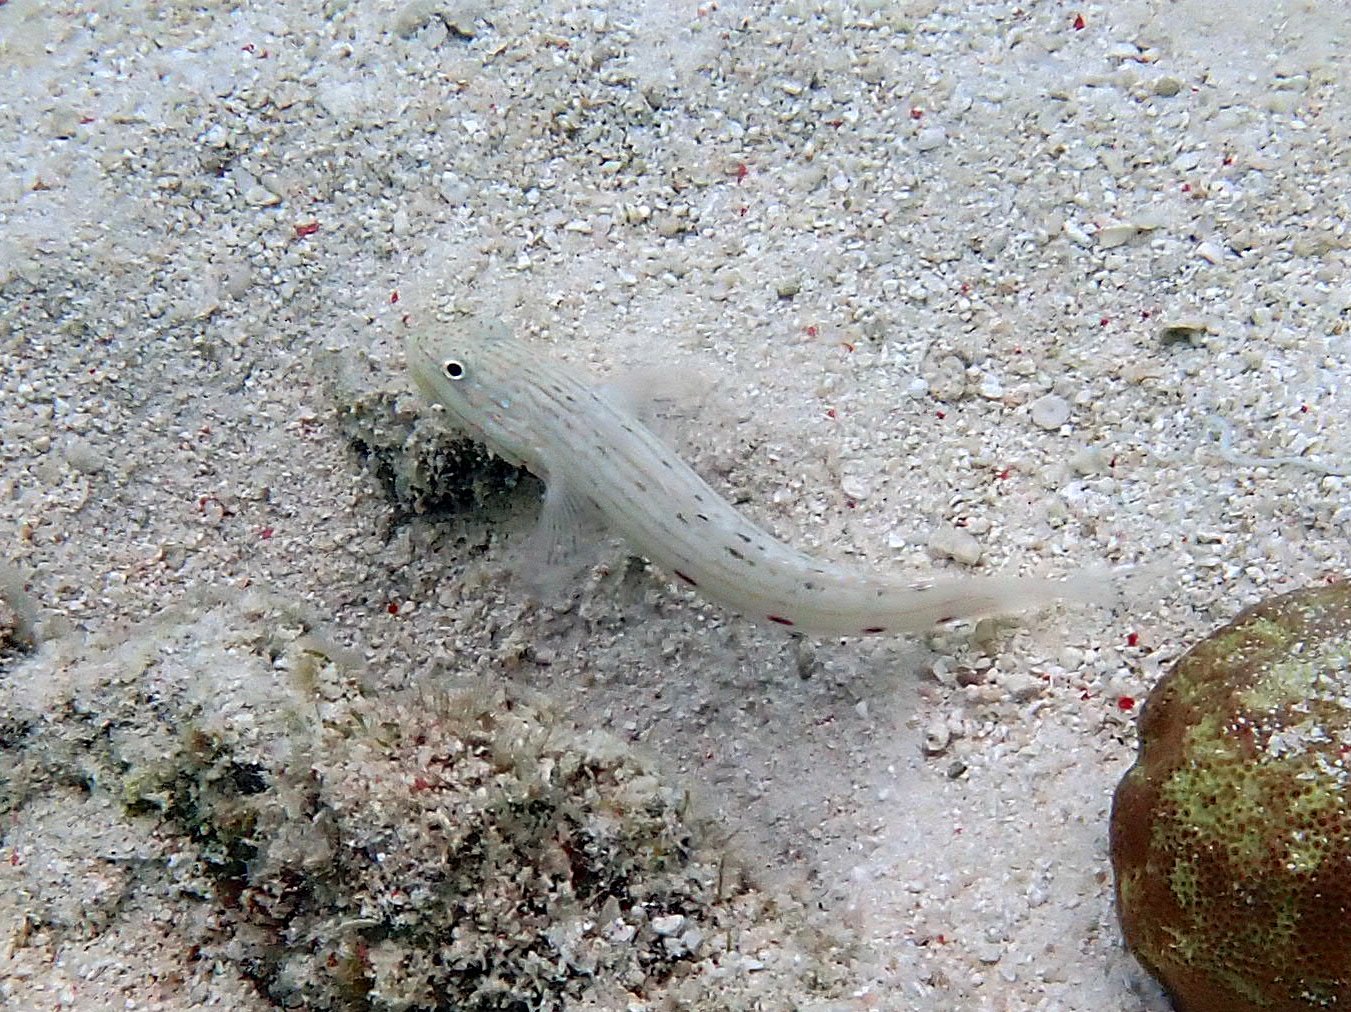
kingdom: Animalia
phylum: Chordata
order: Perciformes
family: Gobiidae
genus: Valenciennea
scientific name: Valenciennea longipinnis
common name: Longfinned goby
